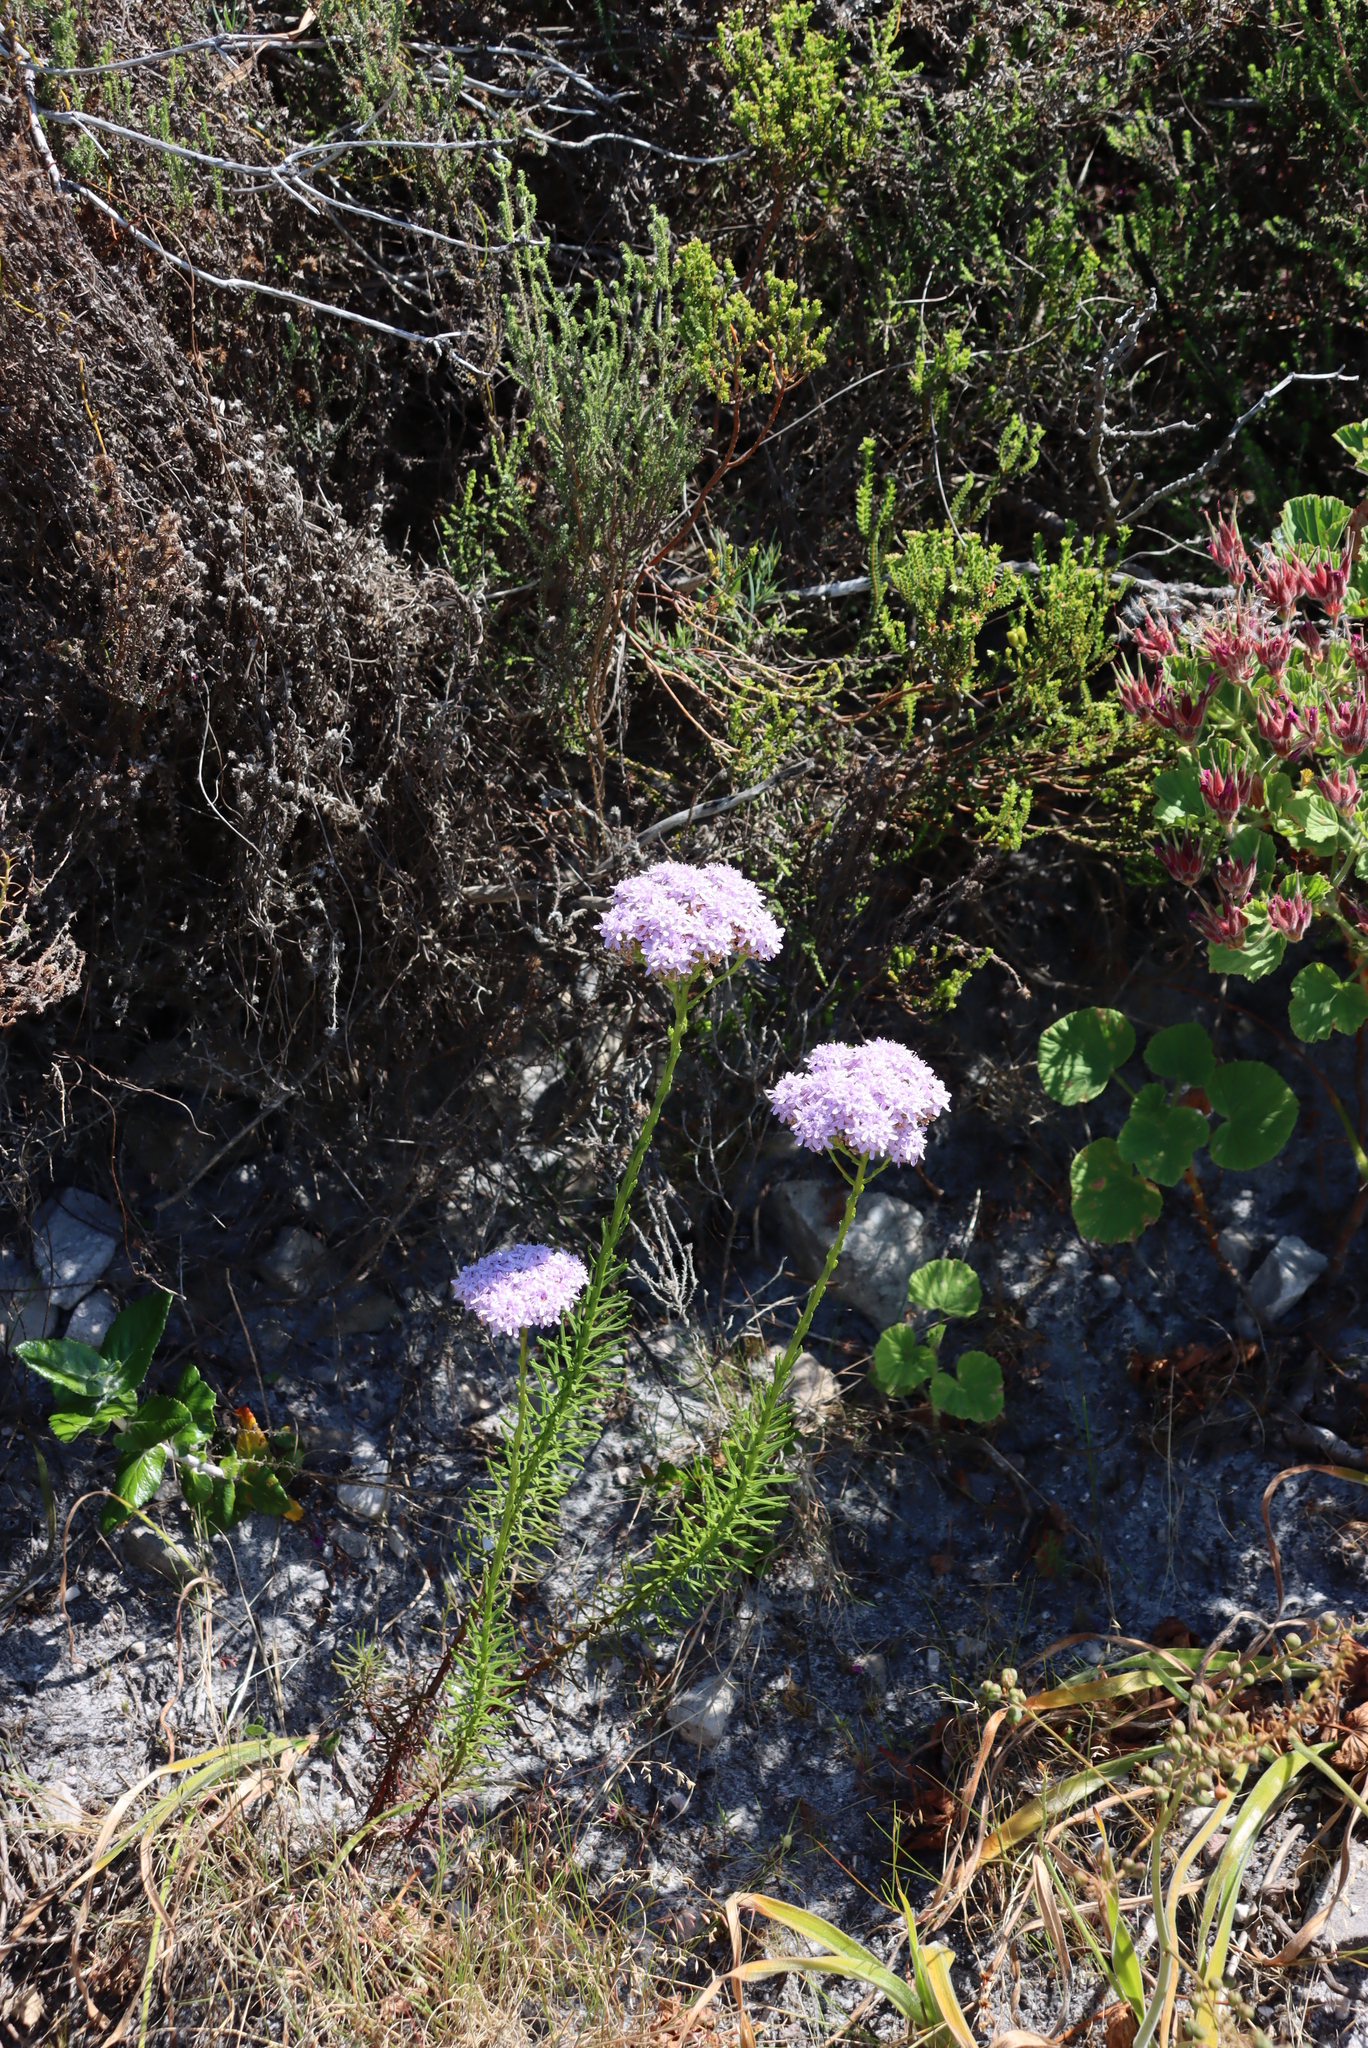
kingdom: Plantae
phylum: Tracheophyta
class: Magnoliopsida
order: Lamiales
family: Scrophulariaceae
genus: Pseudoselago
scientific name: Pseudoselago spuria
